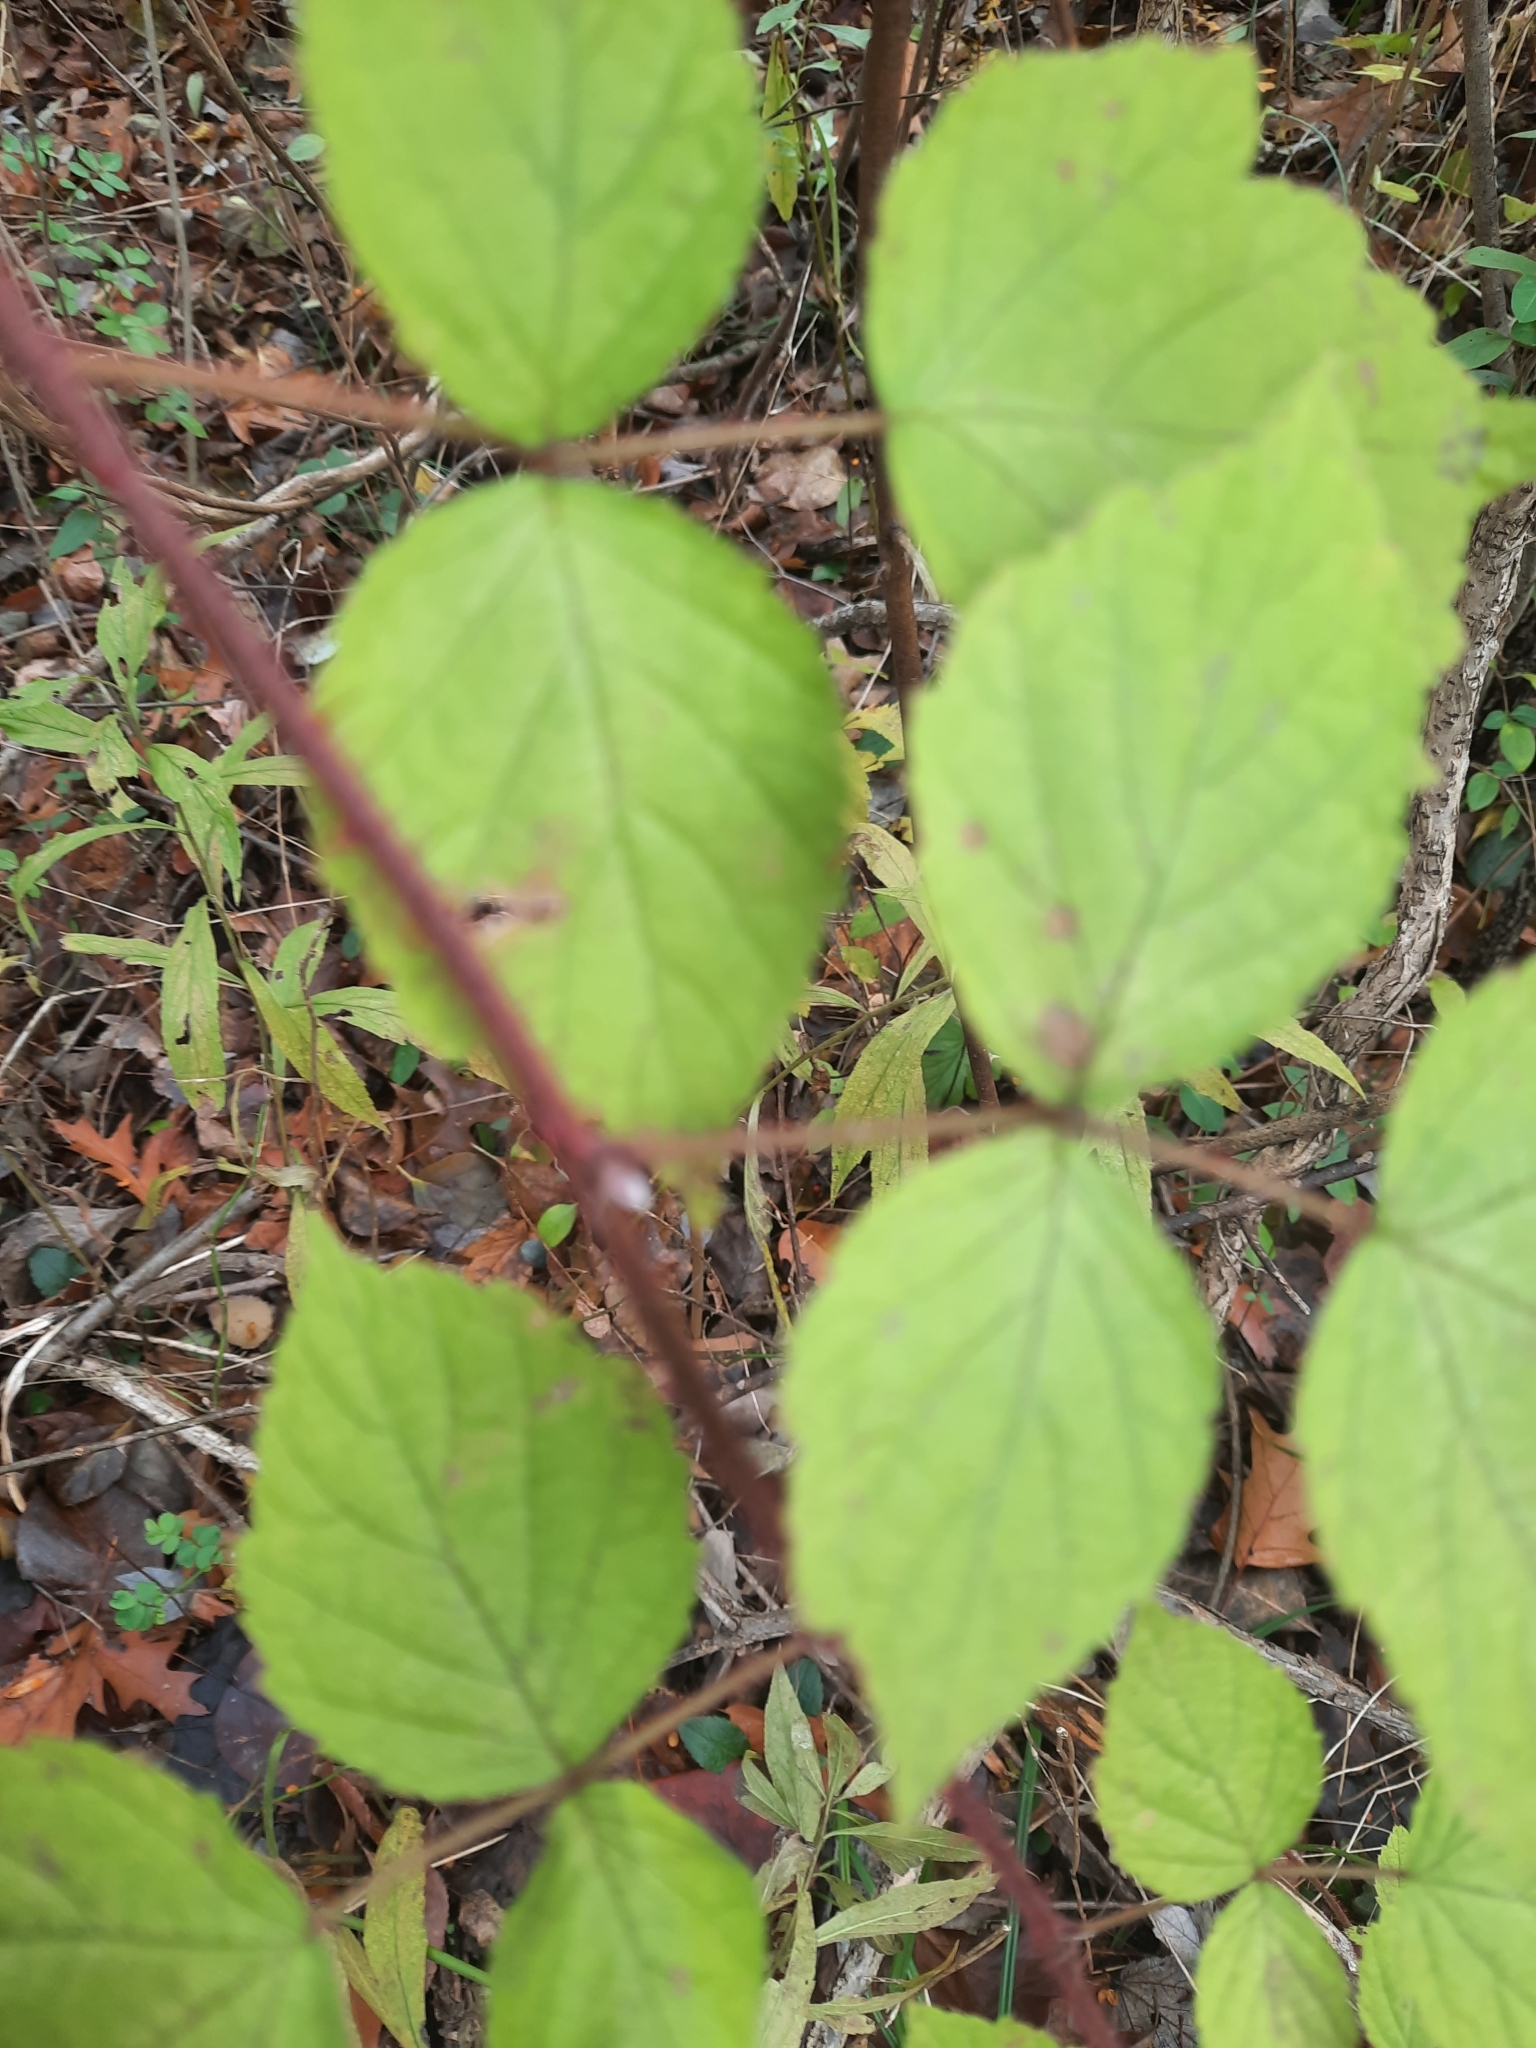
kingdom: Plantae
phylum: Tracheophyta
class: Magnoliopsida
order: Rosales
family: Rosaceae
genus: Rubus
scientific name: Rubus phoenicolasius
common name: Japanese wineberry
